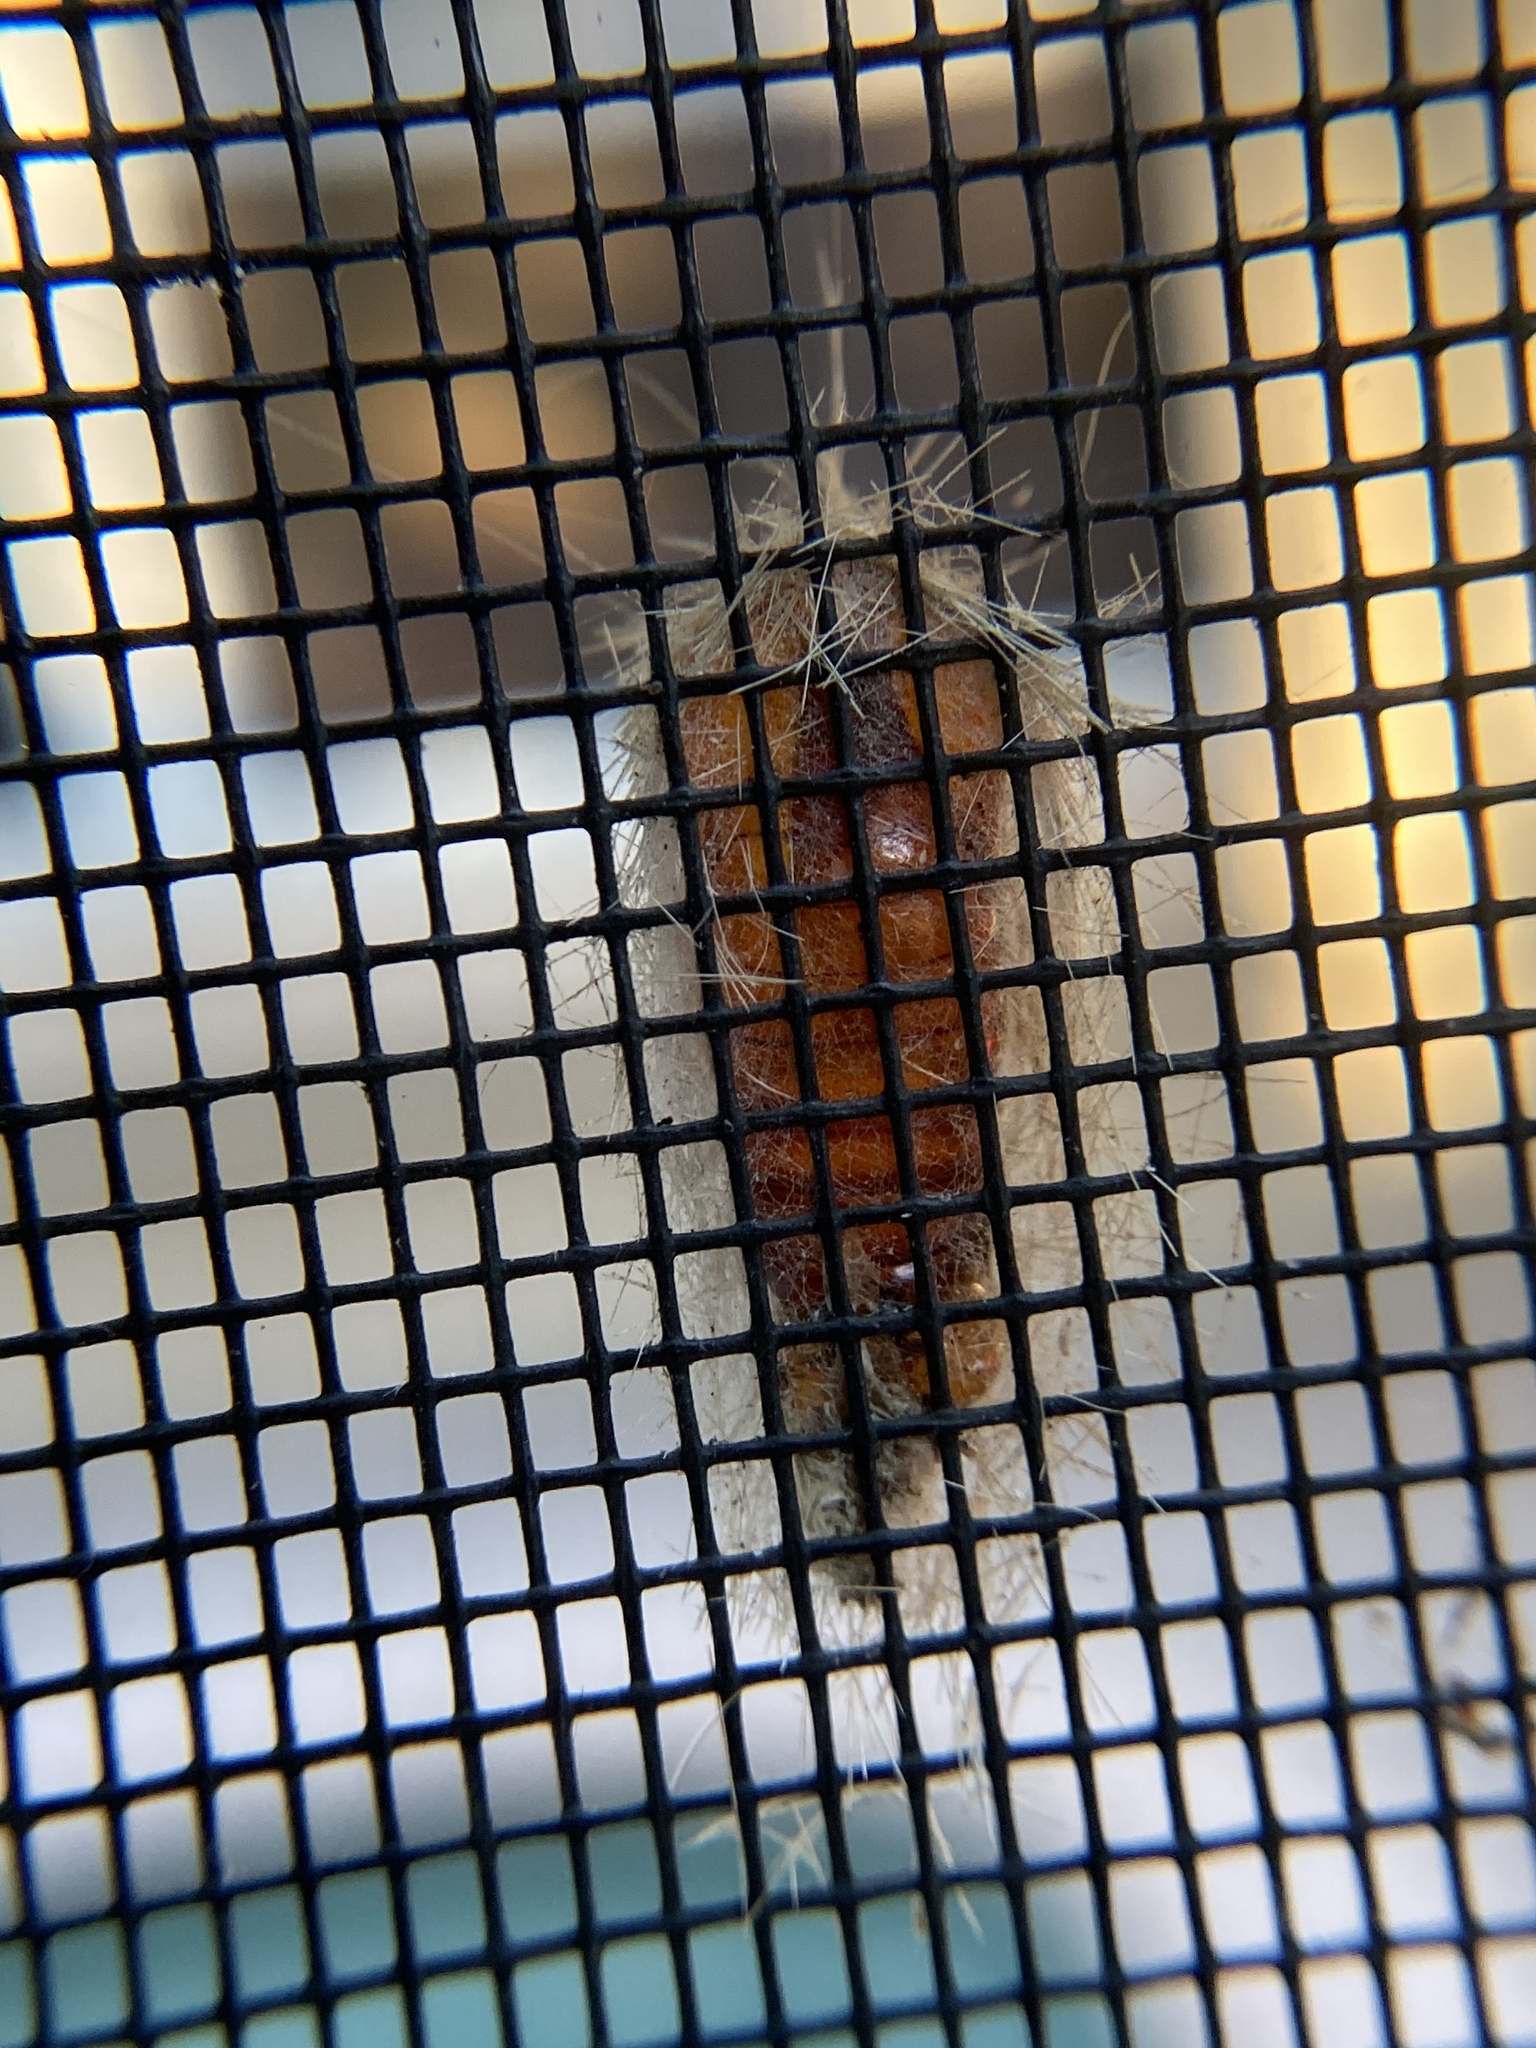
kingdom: Animalia
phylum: Arthropoda
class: Insecta
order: Lepidoptera
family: Erebidae
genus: Lymire
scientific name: Lymire edwardsii
